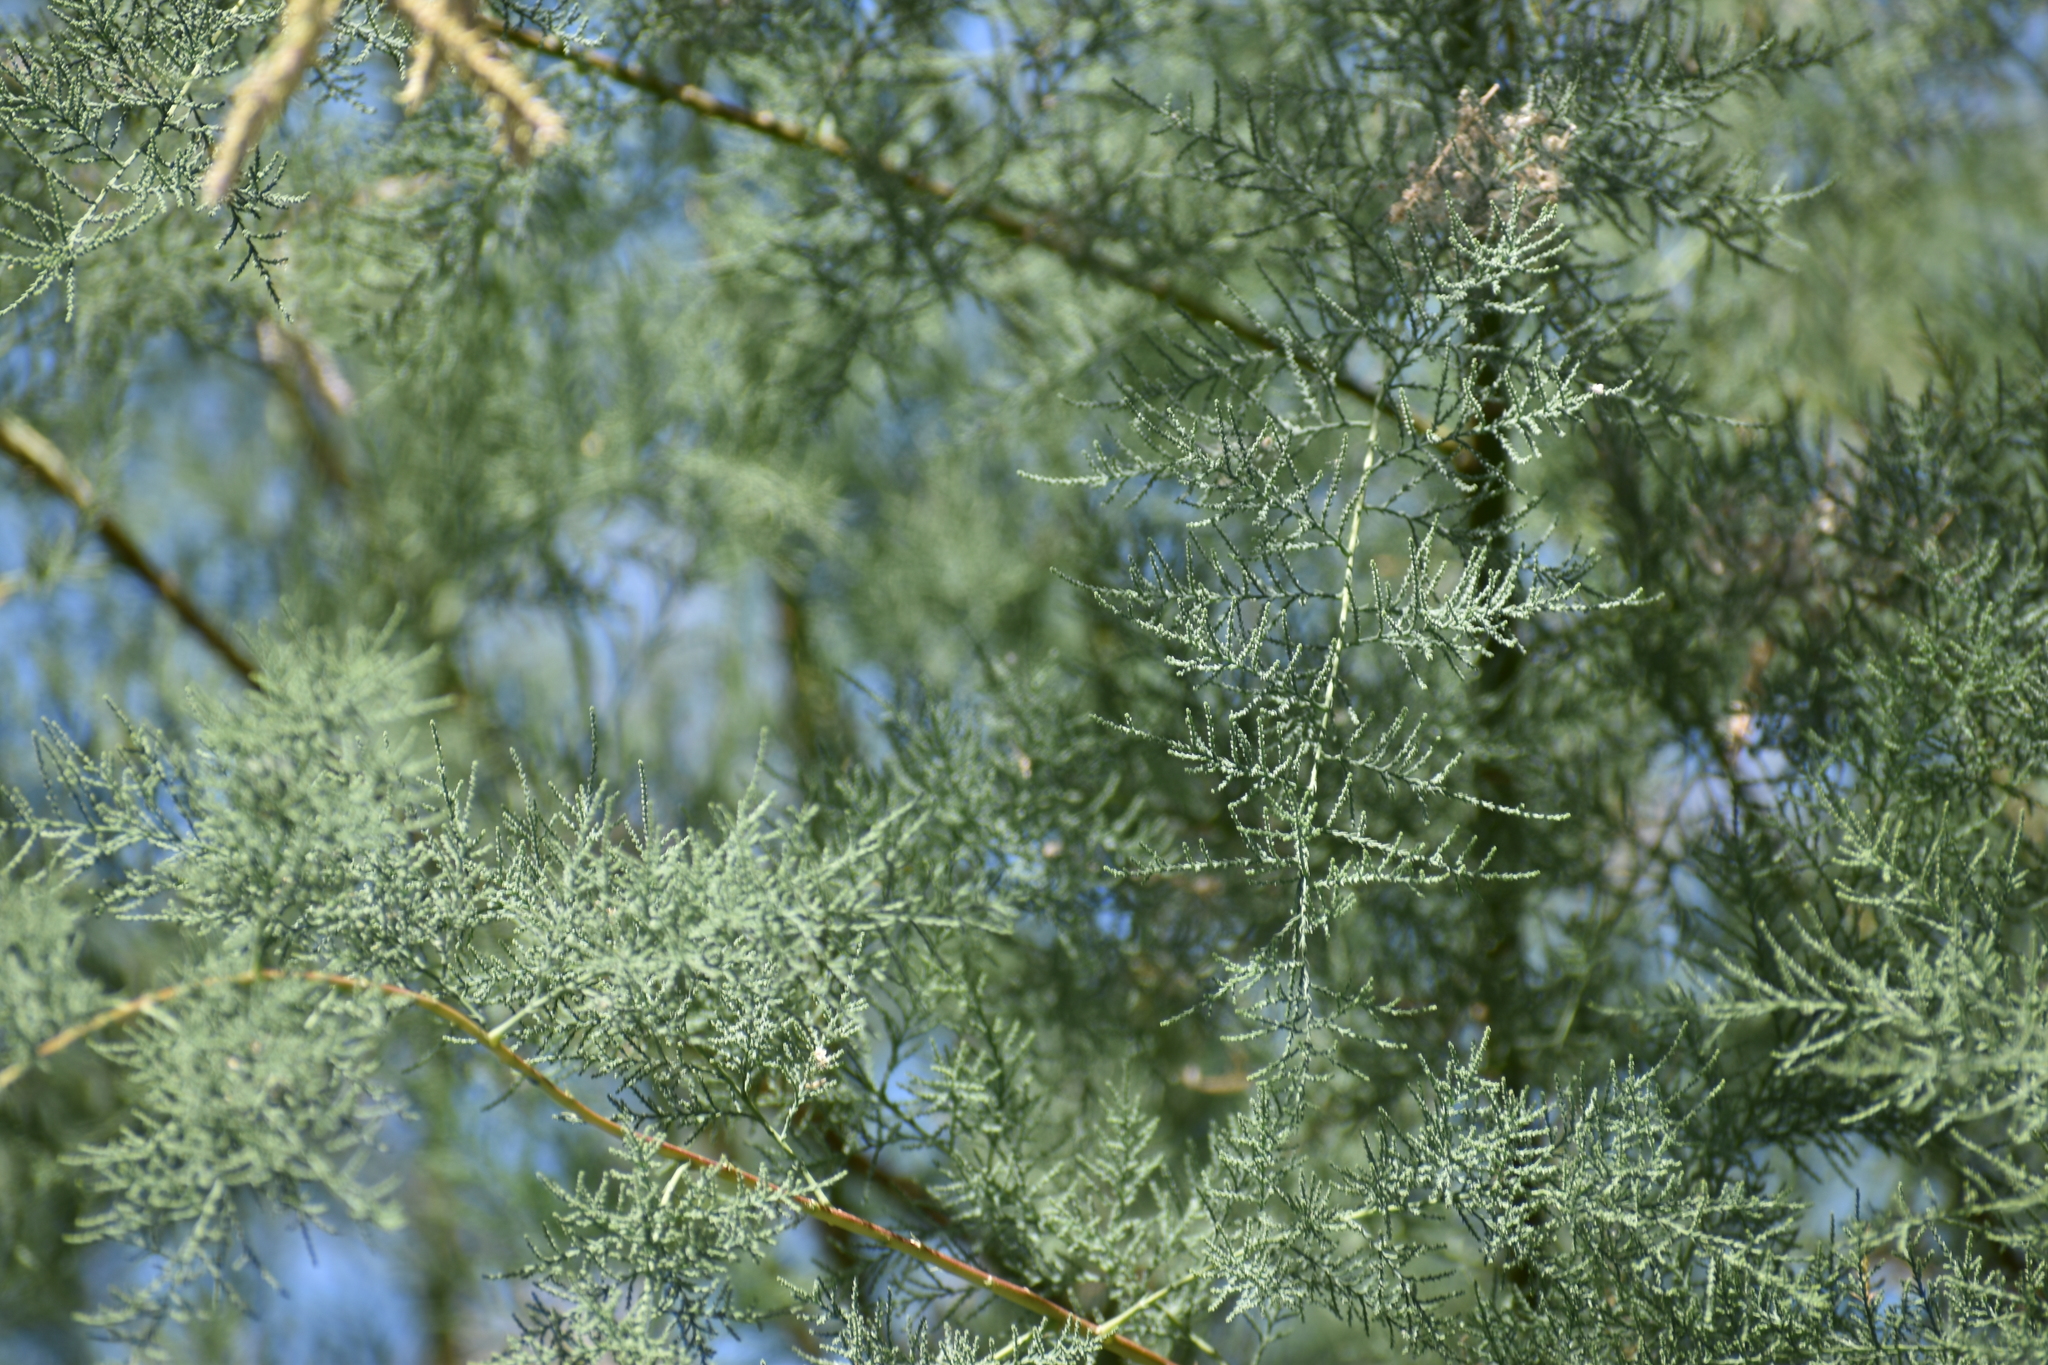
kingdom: Plantae
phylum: Tracheophyta
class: Magnoliopsida
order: Caryophyllales
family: Tamaricaceae
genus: Tamarix
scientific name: Tamarix ramosissima
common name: Pink tamarisk
